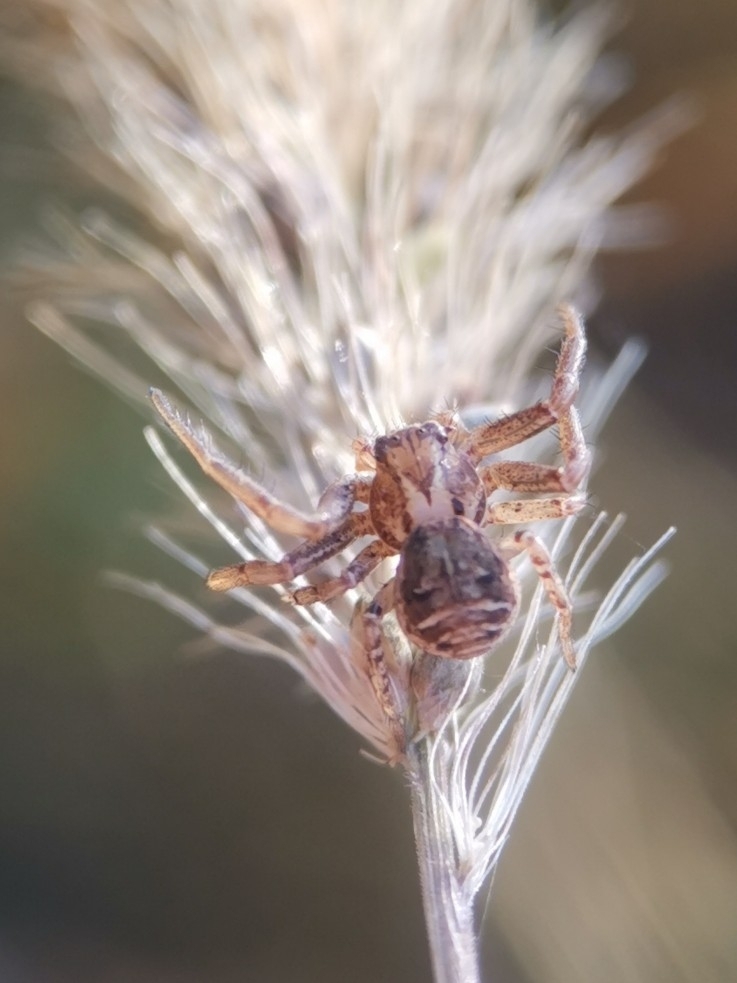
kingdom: Animalia
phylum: Arthropoda
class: Arachnida
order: Araneae
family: Thomisidae
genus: Xysticus
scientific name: Xysticus
